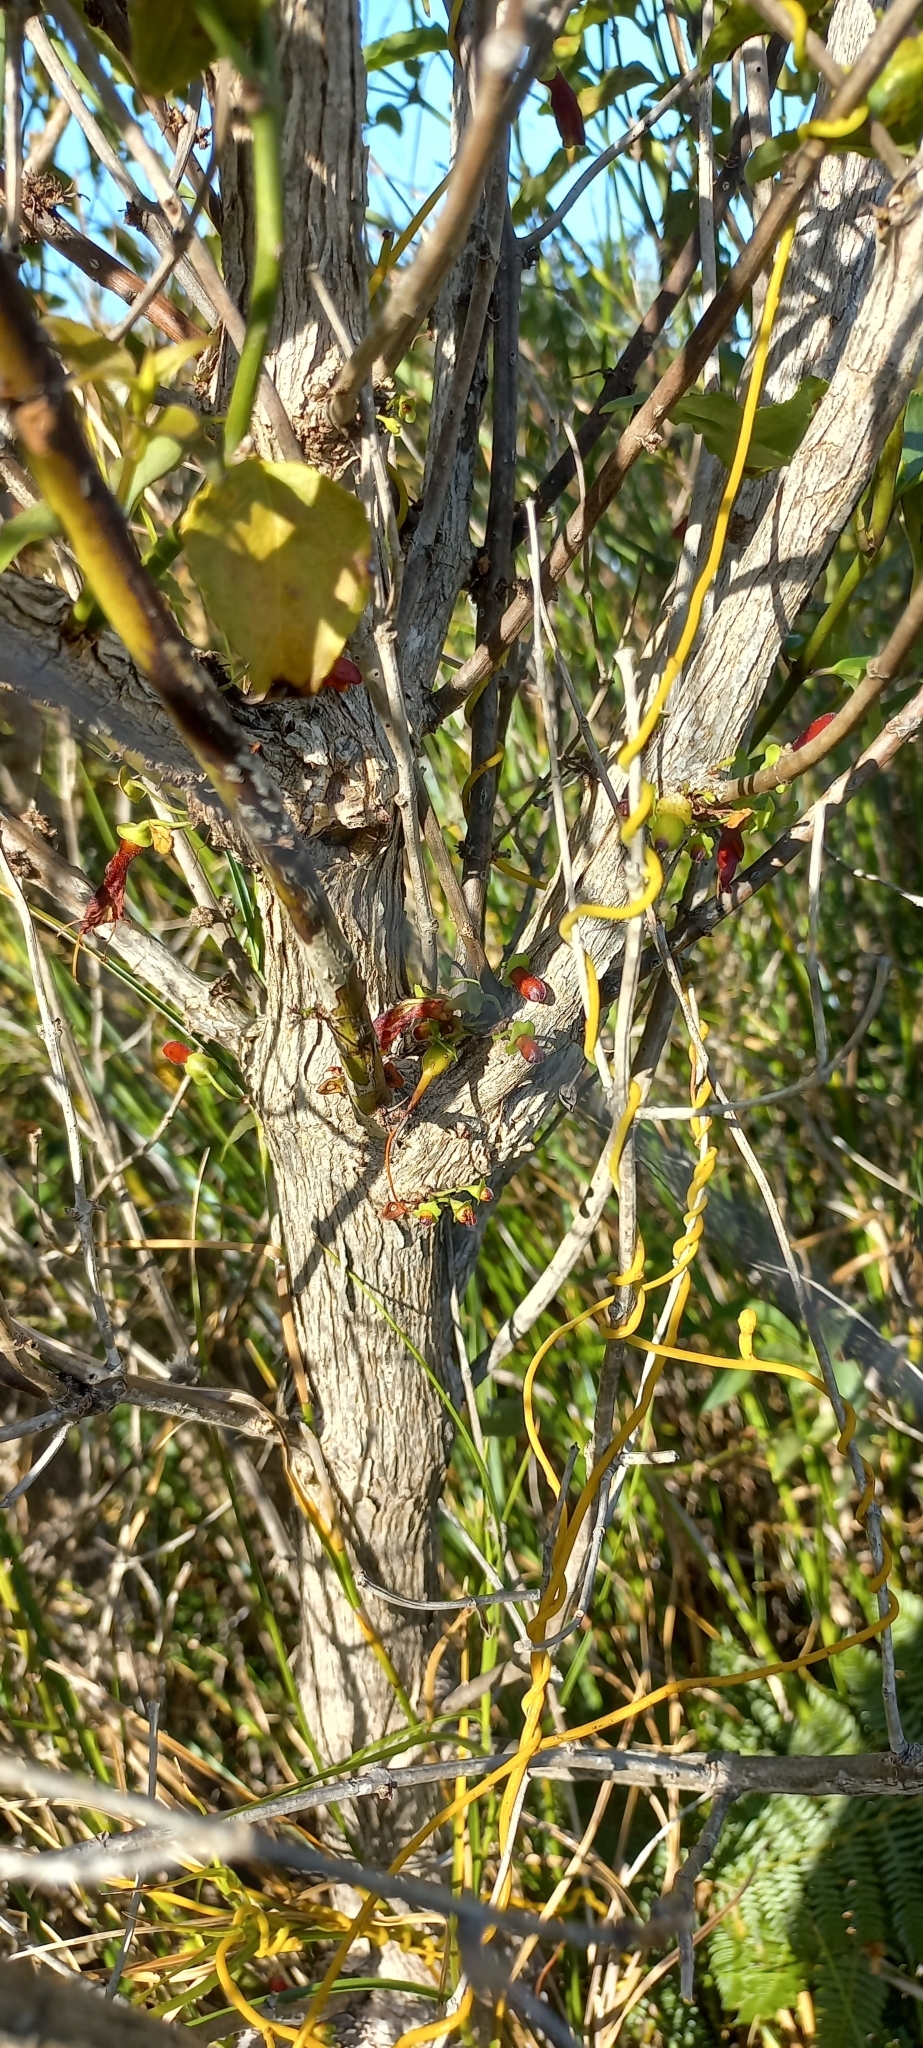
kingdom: Plantae
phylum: Tracheophyta
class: Magnoliopsida
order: Lamiales
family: Stilbaceae
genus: Halleria
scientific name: Halleria lucida
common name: Tree fuschia
